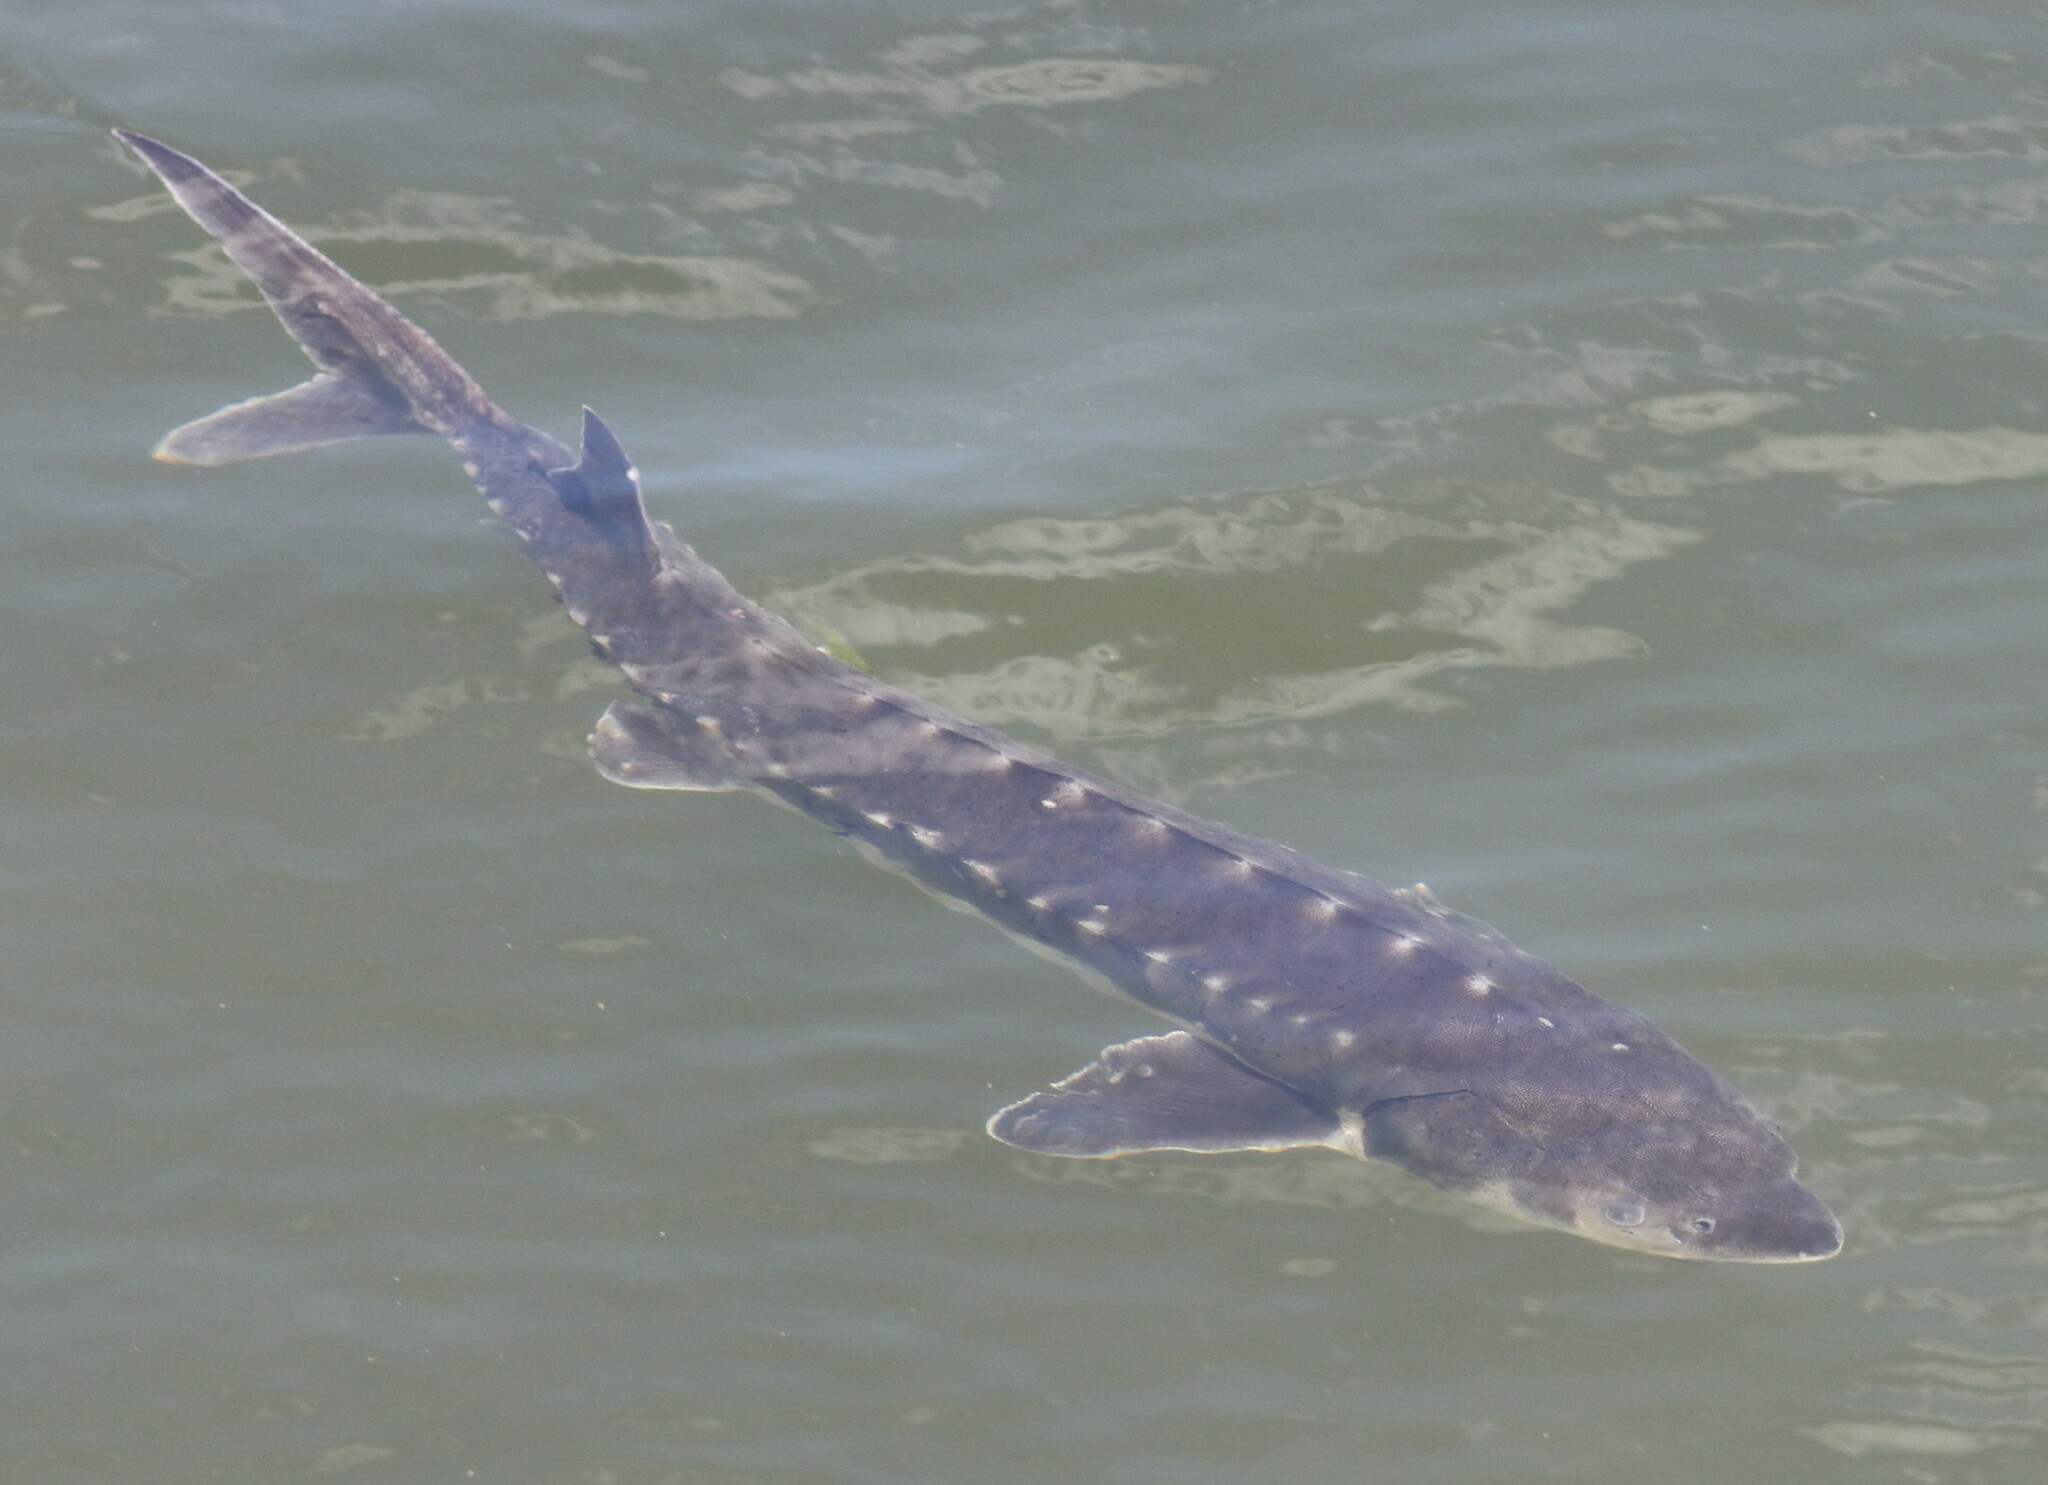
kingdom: Animalia
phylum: Chordata
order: Acipenseriformes
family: Acipenseridae
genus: Acipenser
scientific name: Acipenser brevirostrum
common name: Shortnose sturgeon
